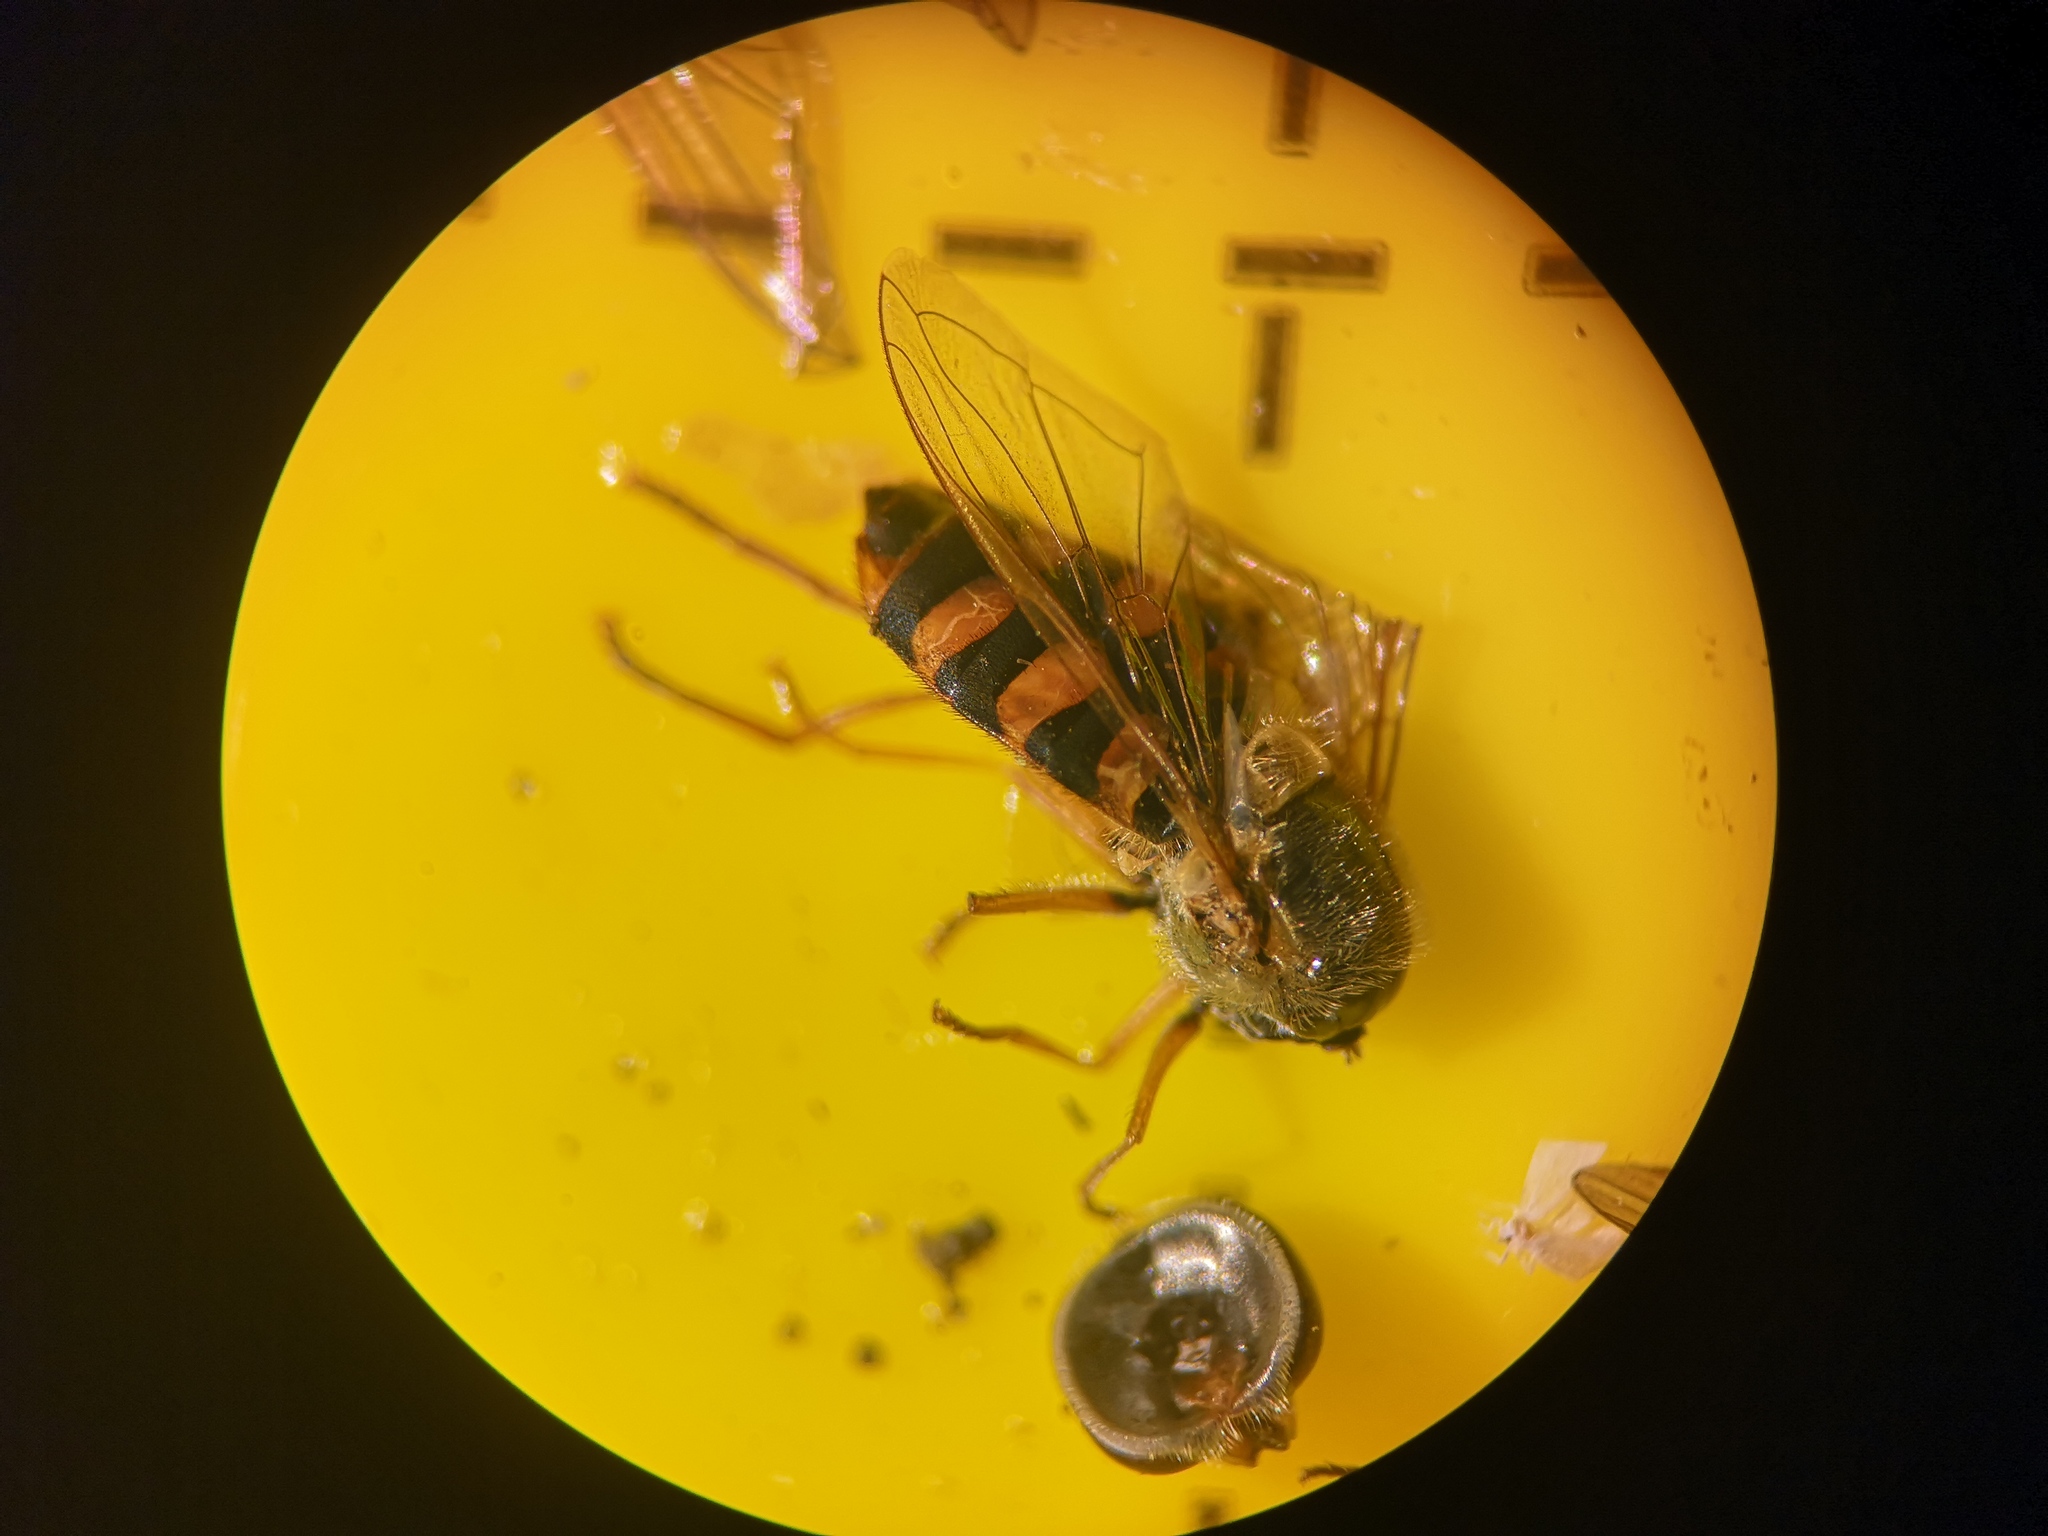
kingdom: Animalia
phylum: Arthropoda
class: Insecta
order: Diptera
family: Syrphidae
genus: Eupeodes
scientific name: Eupeodes corollae
